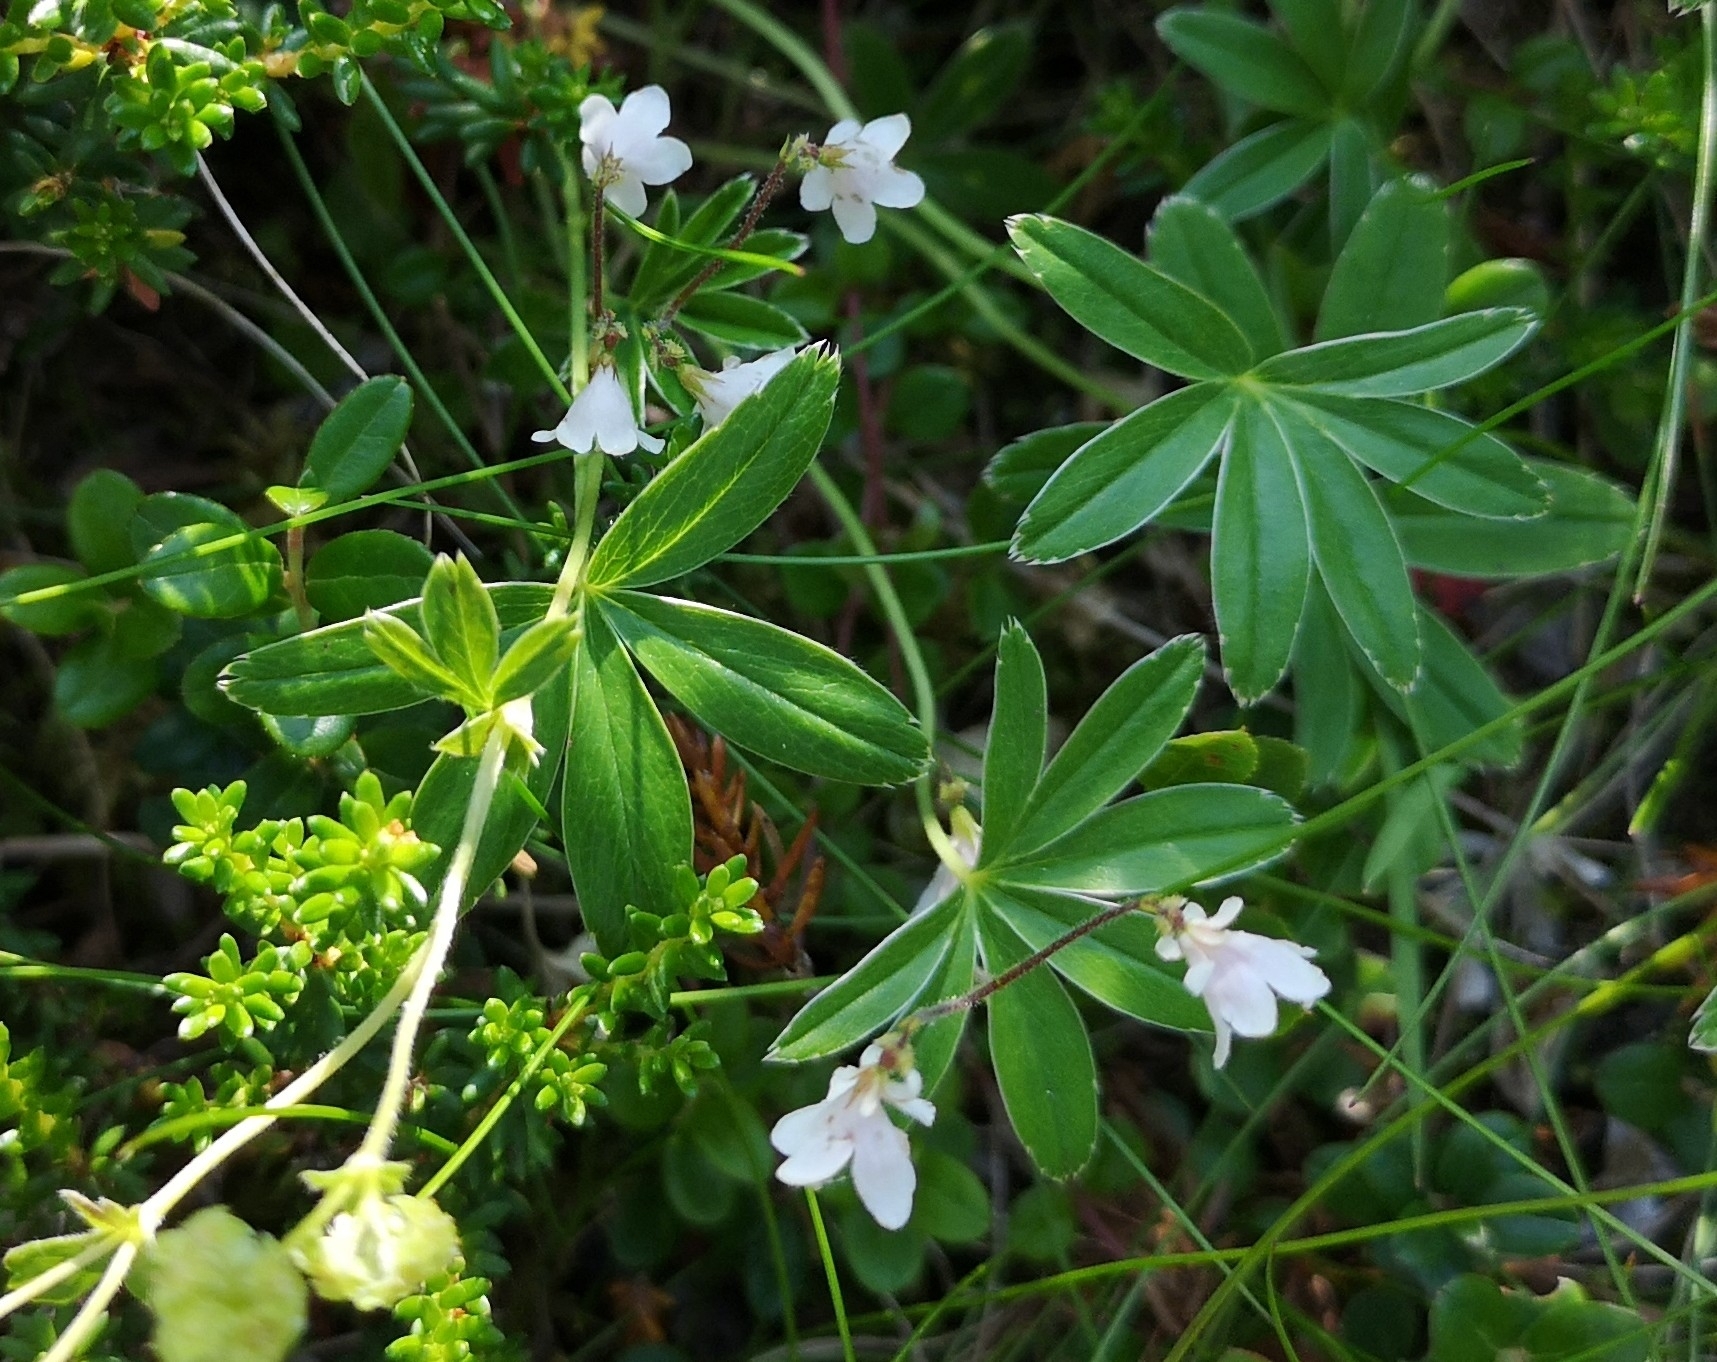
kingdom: Plantae
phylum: Tracheophyta
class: Magnoliopsida
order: Dipsacales
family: Caprifoliaceae
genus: Linnaea
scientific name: Linnaea borealis
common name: Twinflower
